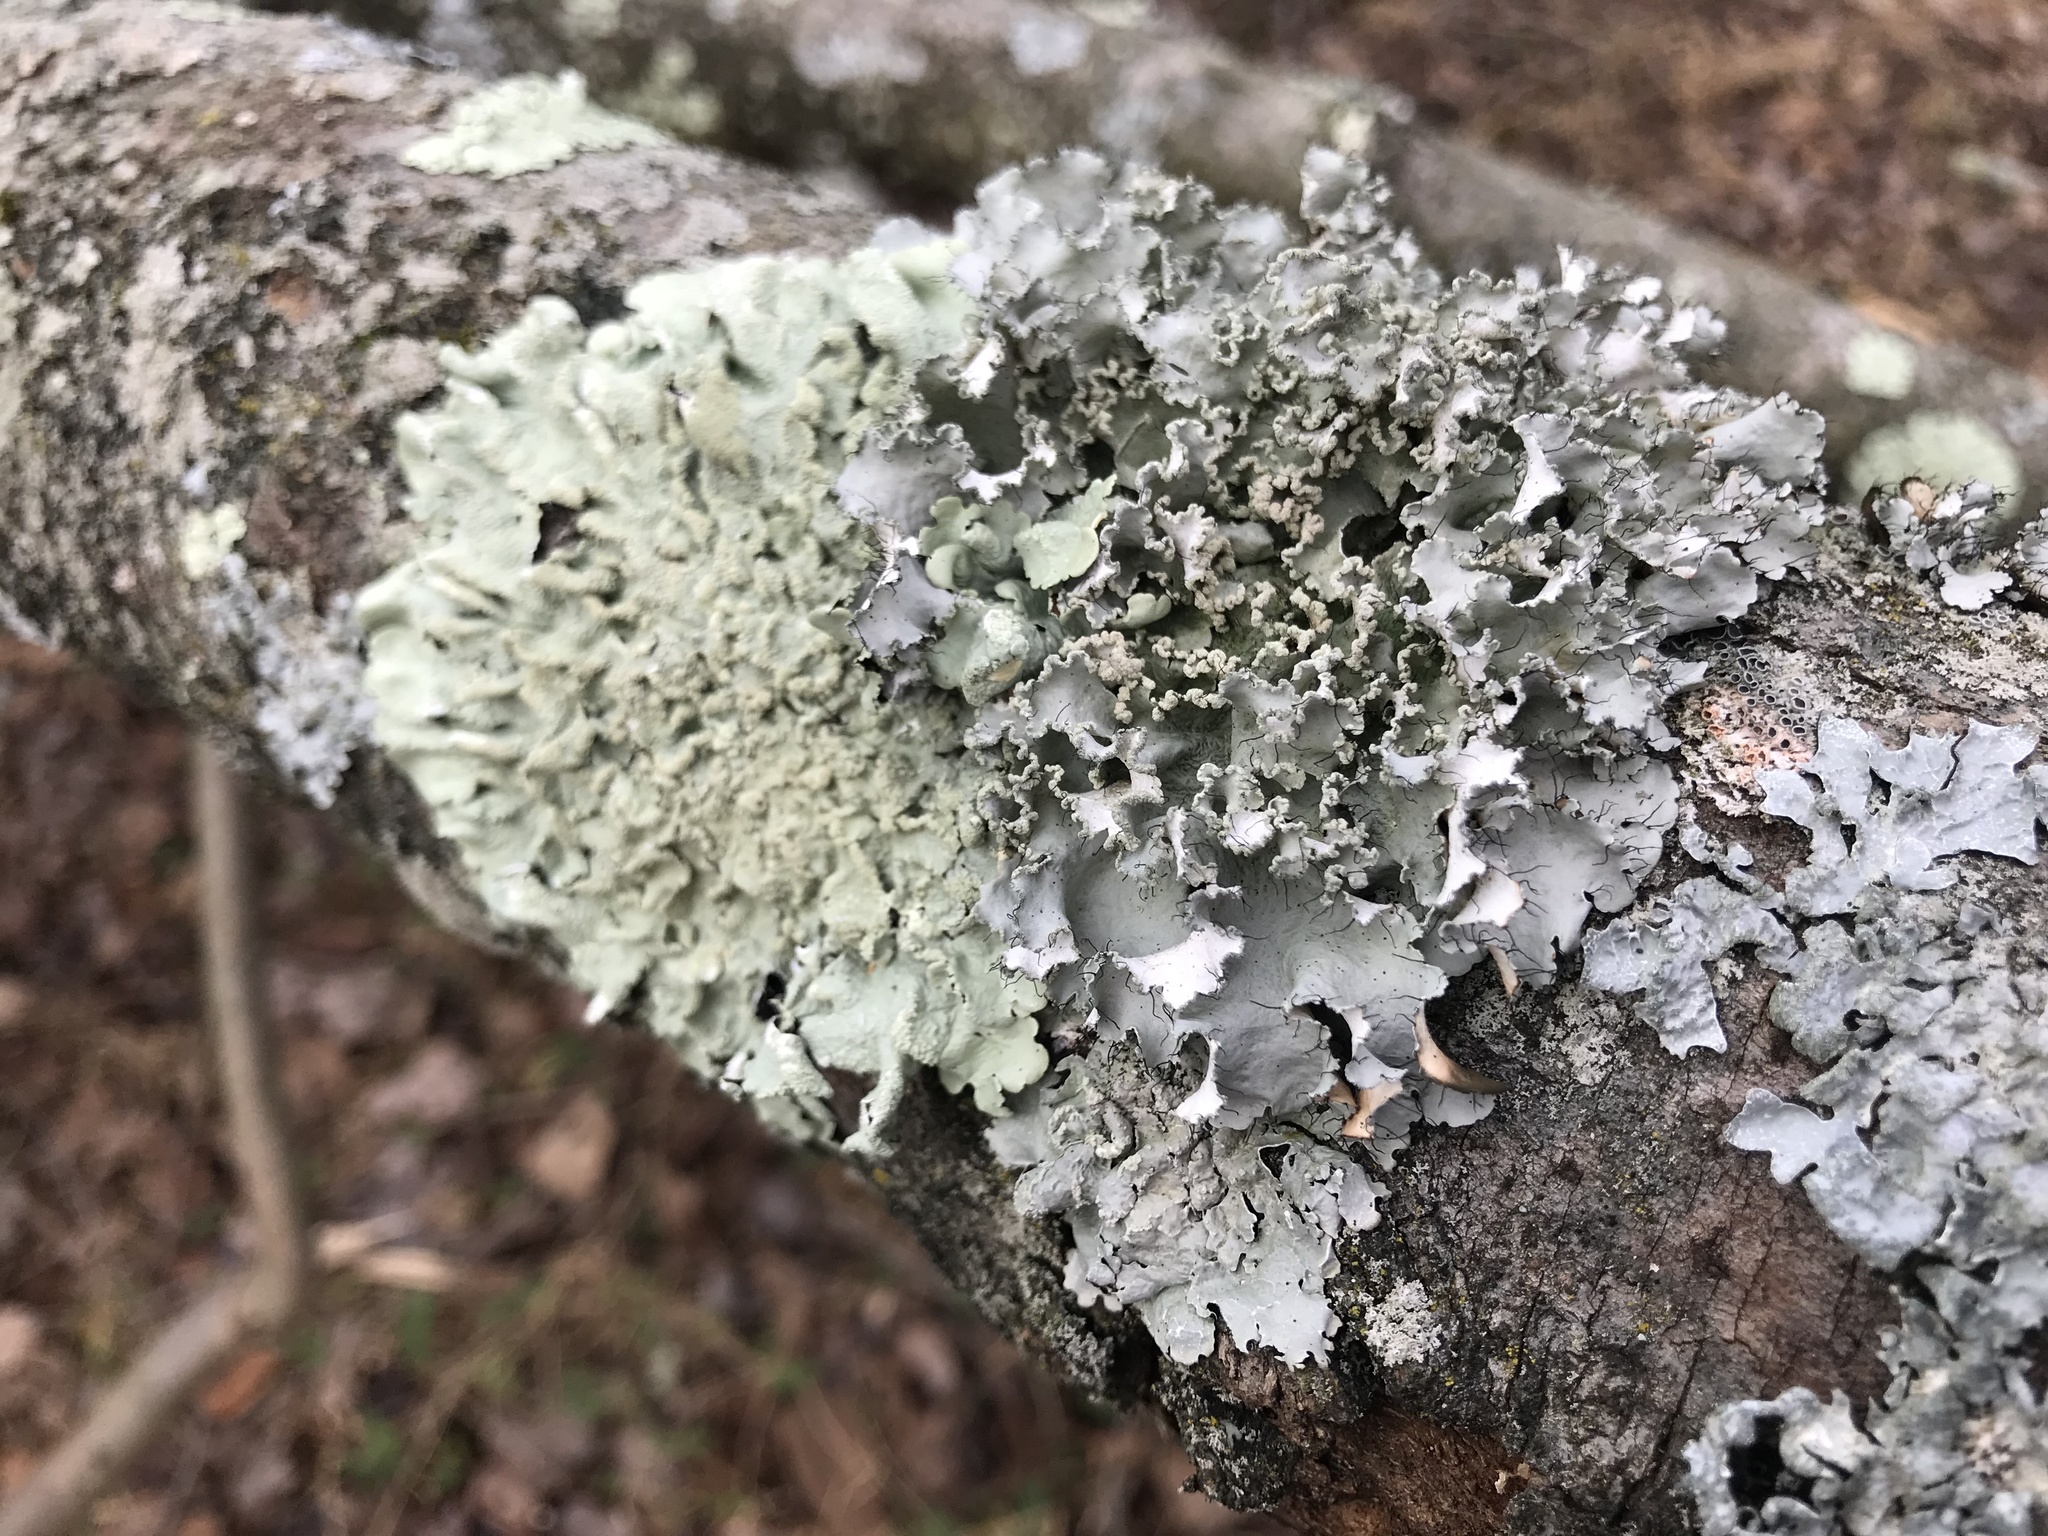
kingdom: Fungi
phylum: Ascomycota
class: Lecanoromycetes
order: Lecanorales
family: Parmeliaceae
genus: Parmotrema
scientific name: Parmotrema hypotropum
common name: Powdered ruffle lichen
